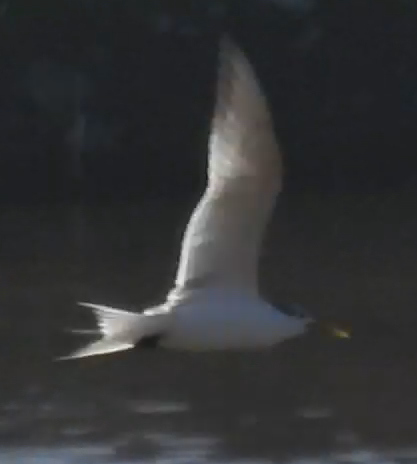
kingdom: Animalia
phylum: Chordata
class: Aves
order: Charadriiformes
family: Laridae
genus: Thalasseus
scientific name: Thalasseus bergii
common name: Greater crested tern
